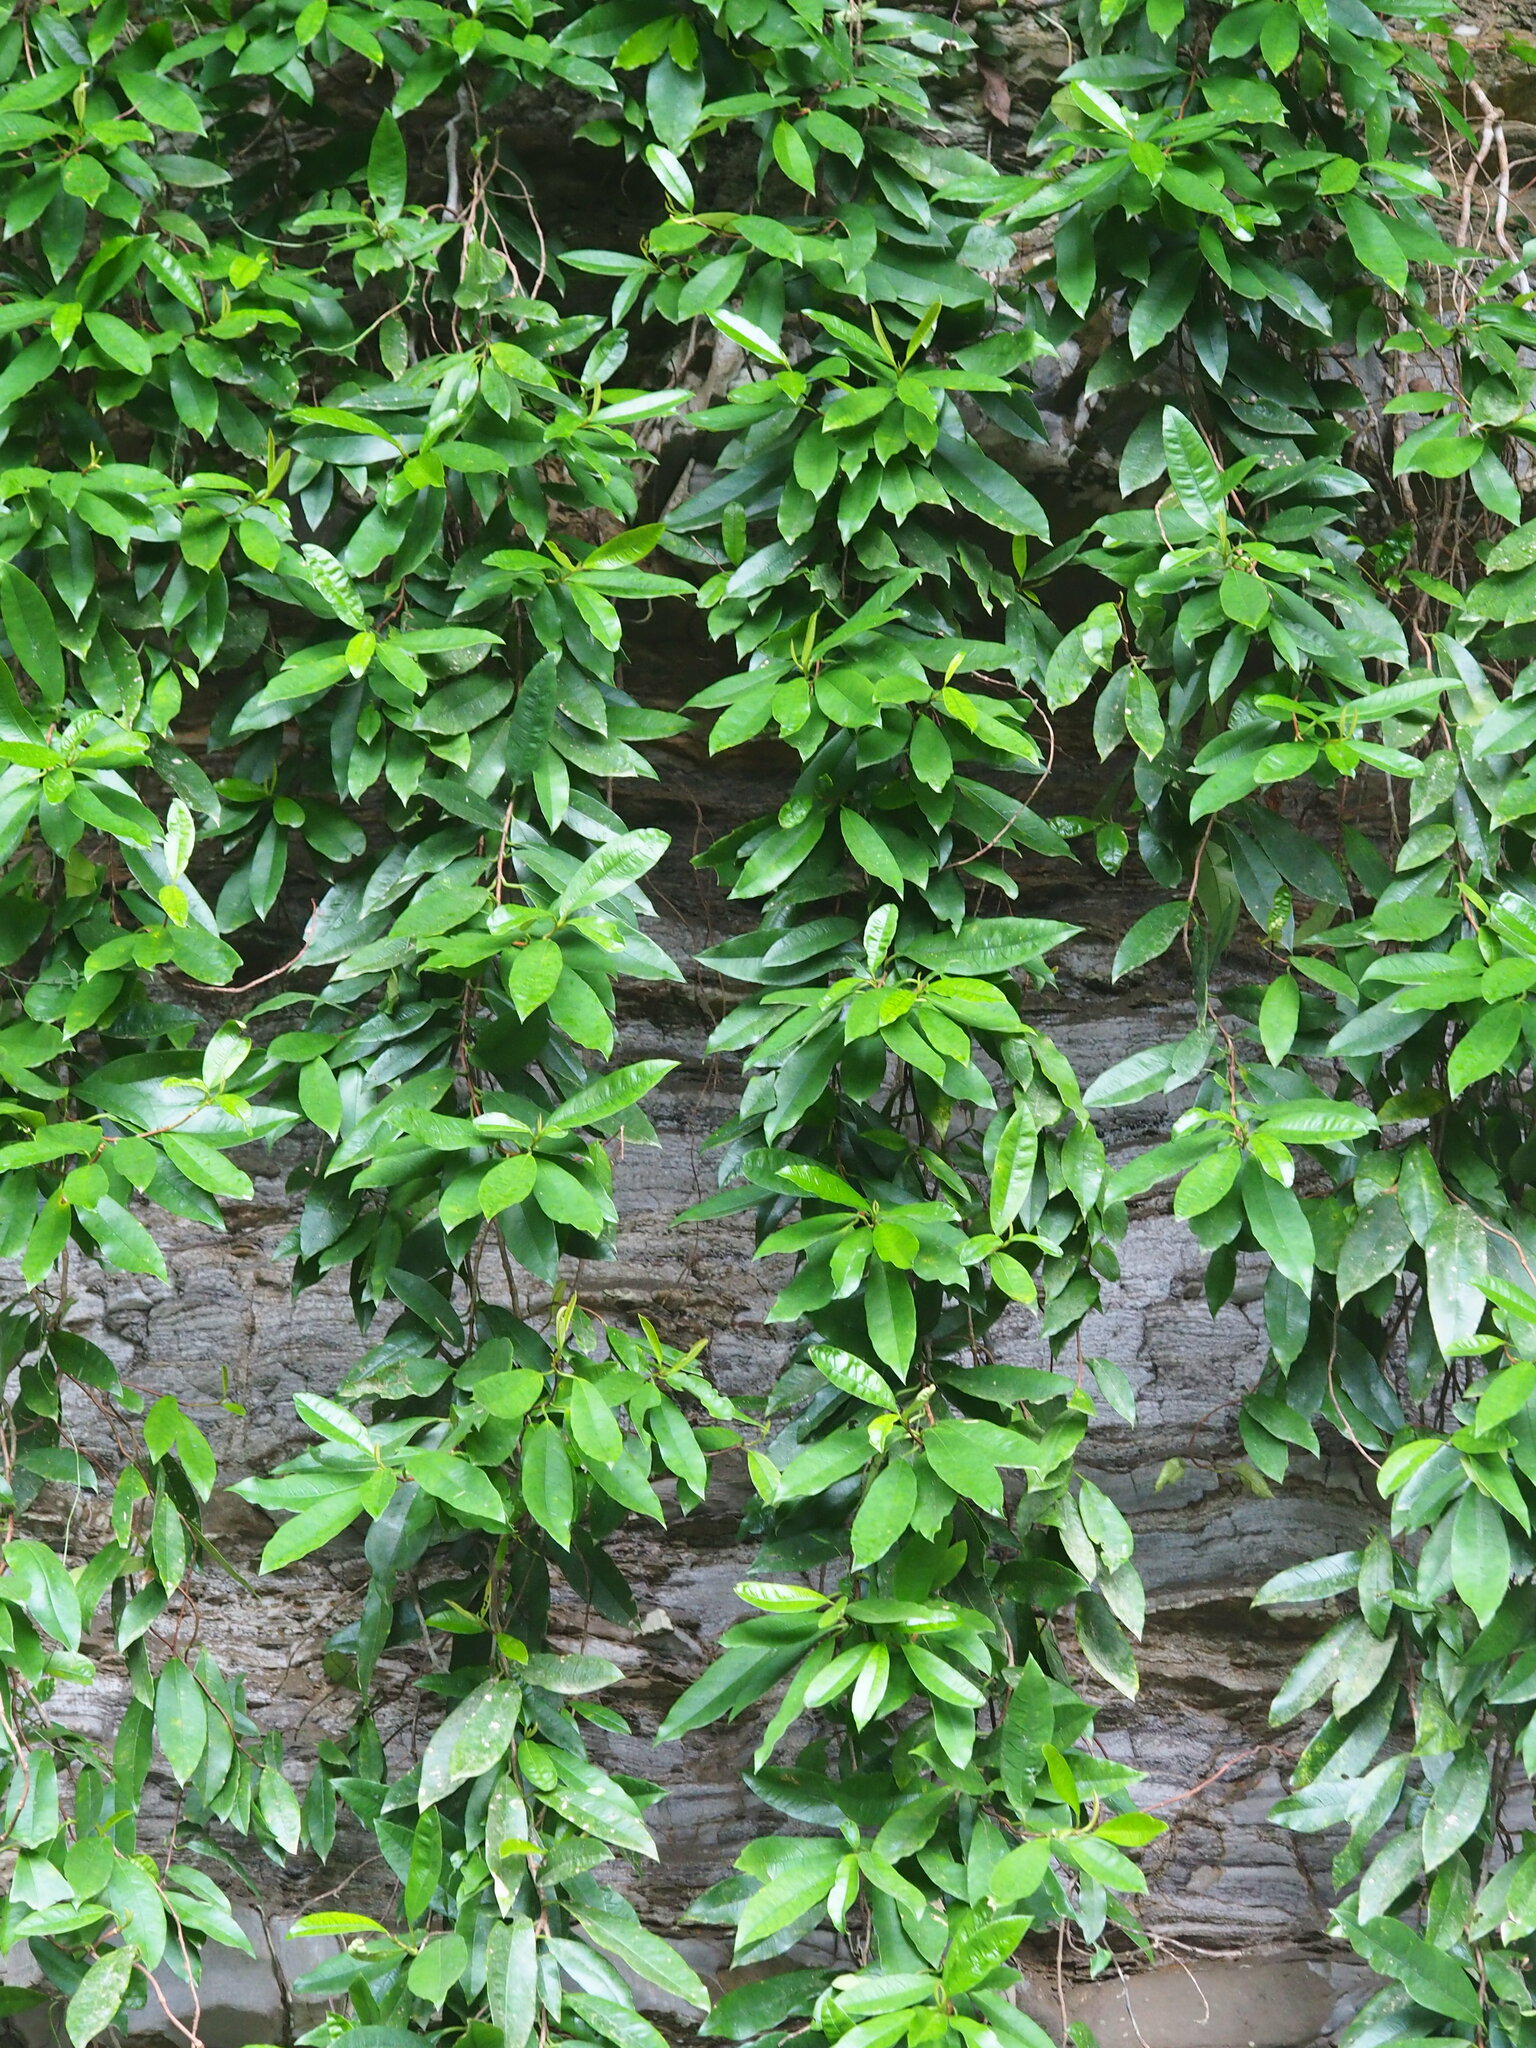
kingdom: Plantae
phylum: Tracheophyta
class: Magnoliopsida
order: Cornales
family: Hydrangeaceae
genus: Hydrangea
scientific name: Hydrangea viburnoides
